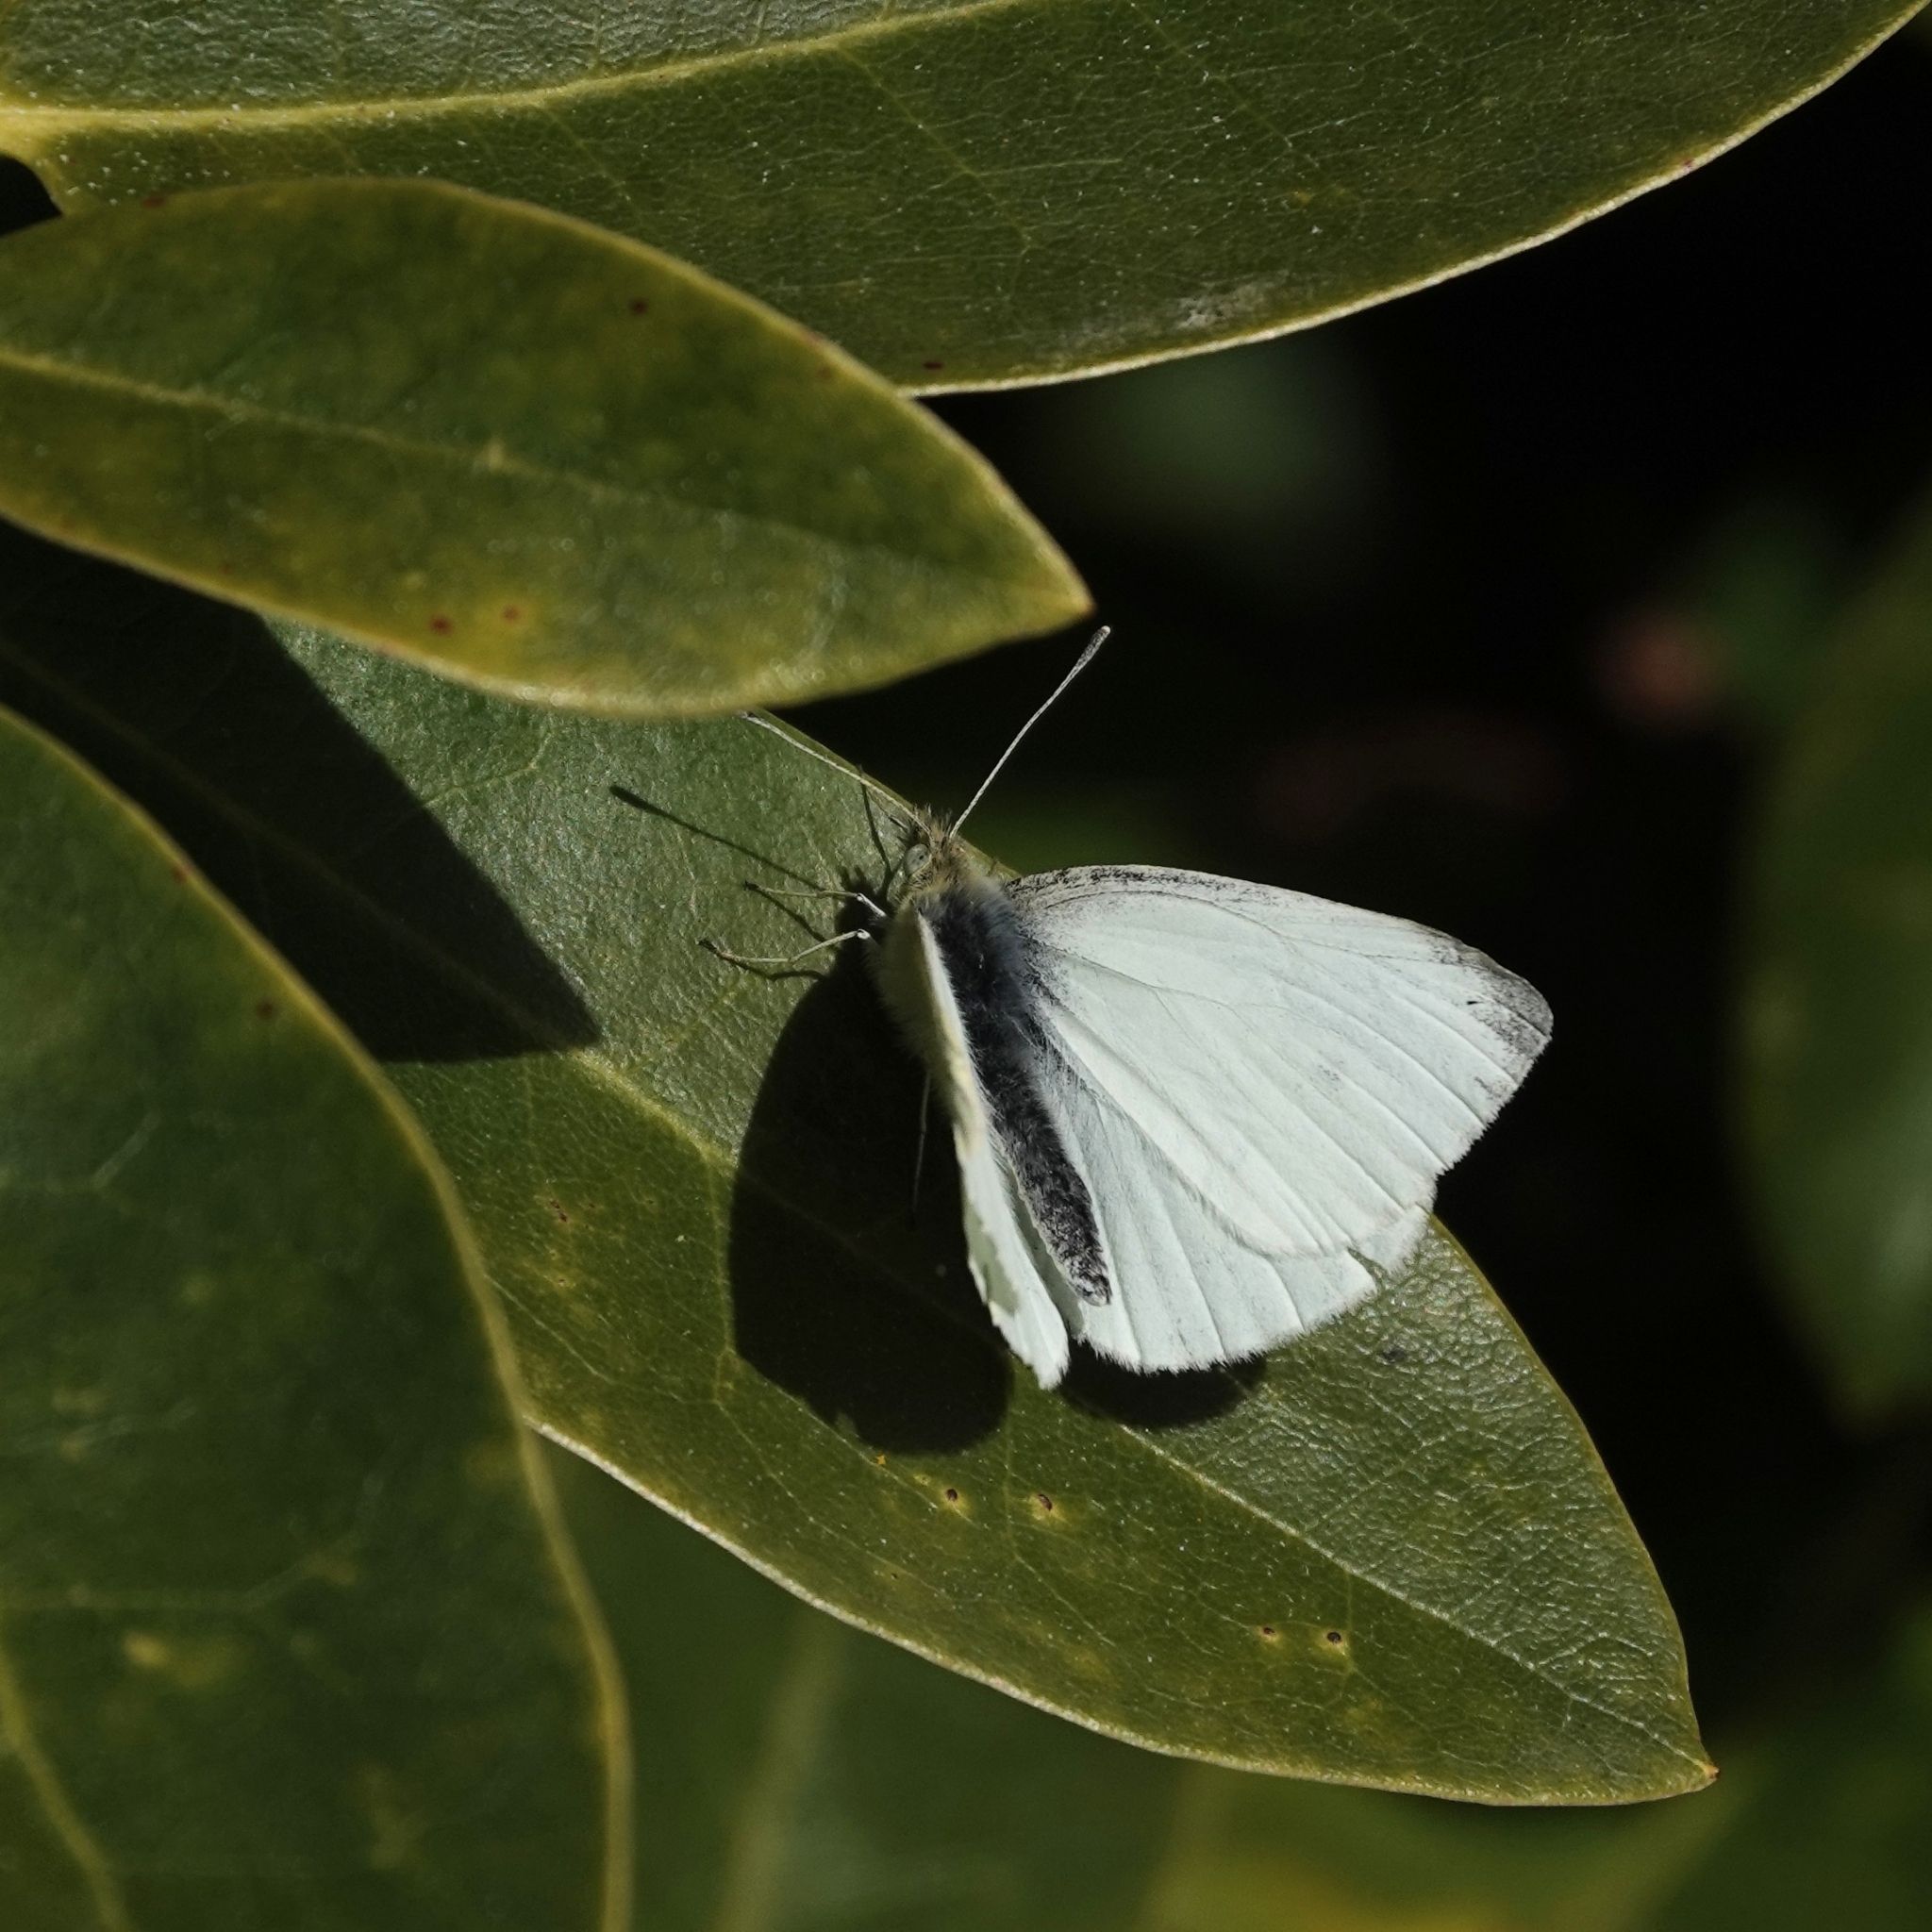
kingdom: Animalia
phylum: Arthropoda
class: Insecta
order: Lepidoptera
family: Pieridae
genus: Pieris
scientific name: Pieris napi
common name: Green-veined white
